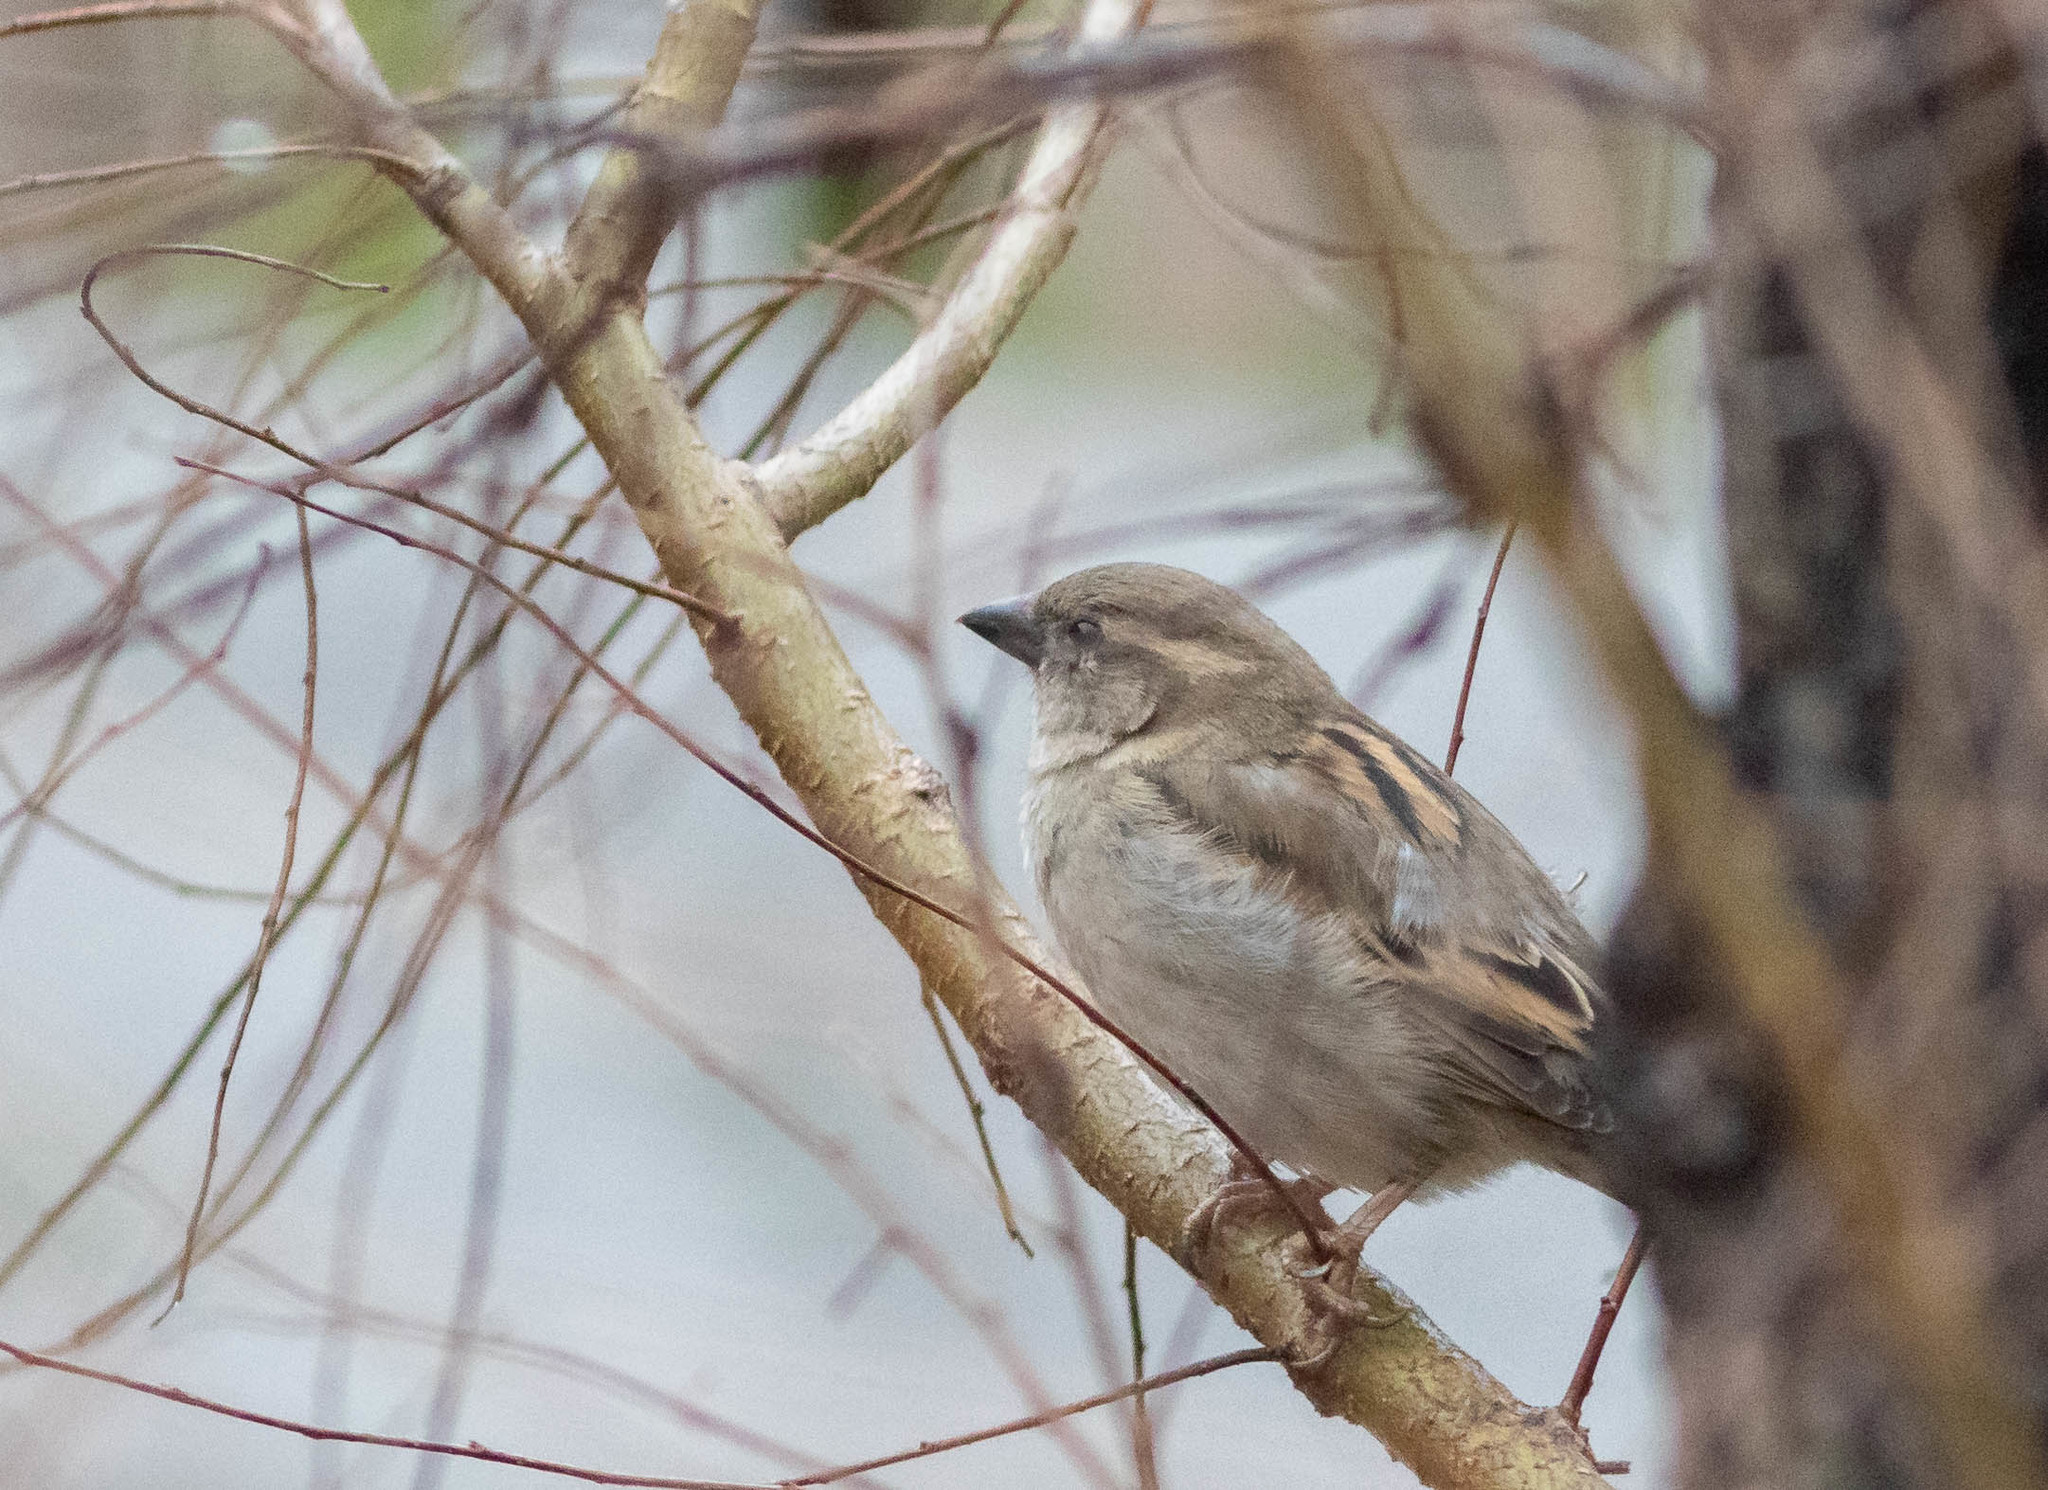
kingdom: Animalia
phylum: Chordata
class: Aves
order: Passeriformes
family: Passeridae
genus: Passer
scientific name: Passer domesticus
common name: House sparrow
